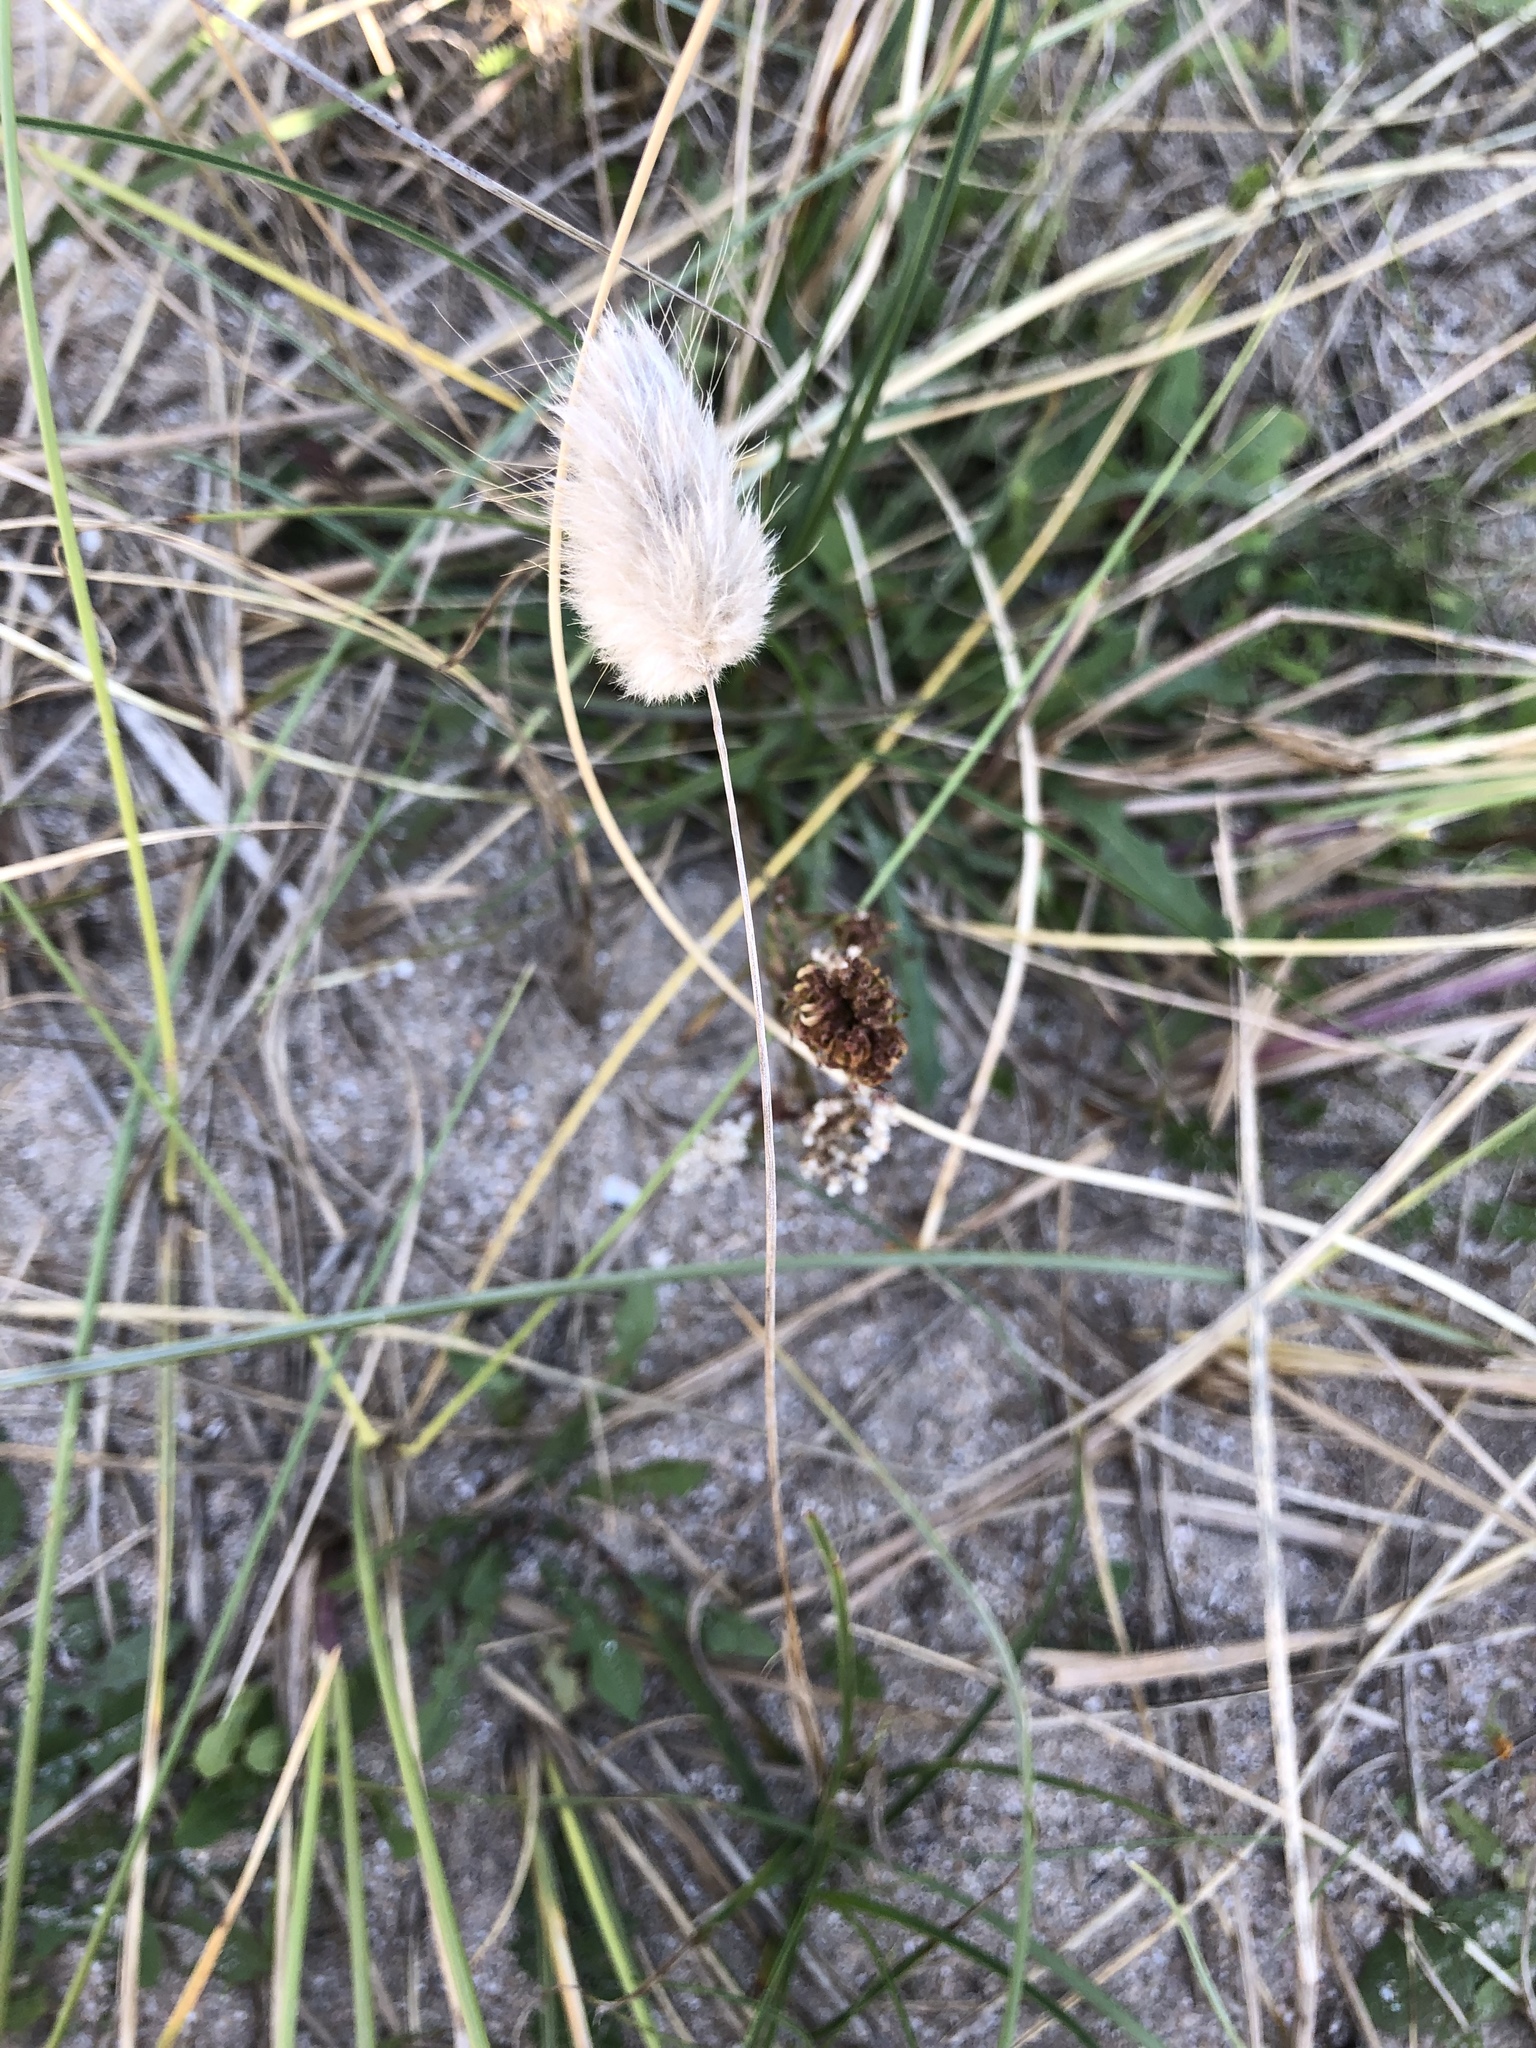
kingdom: Plantae
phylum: Tracheophyta
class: Liliopsida
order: Poales
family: Poaceae
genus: Lagurus
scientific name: Lagurus ovatus
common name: Hare's-tail
